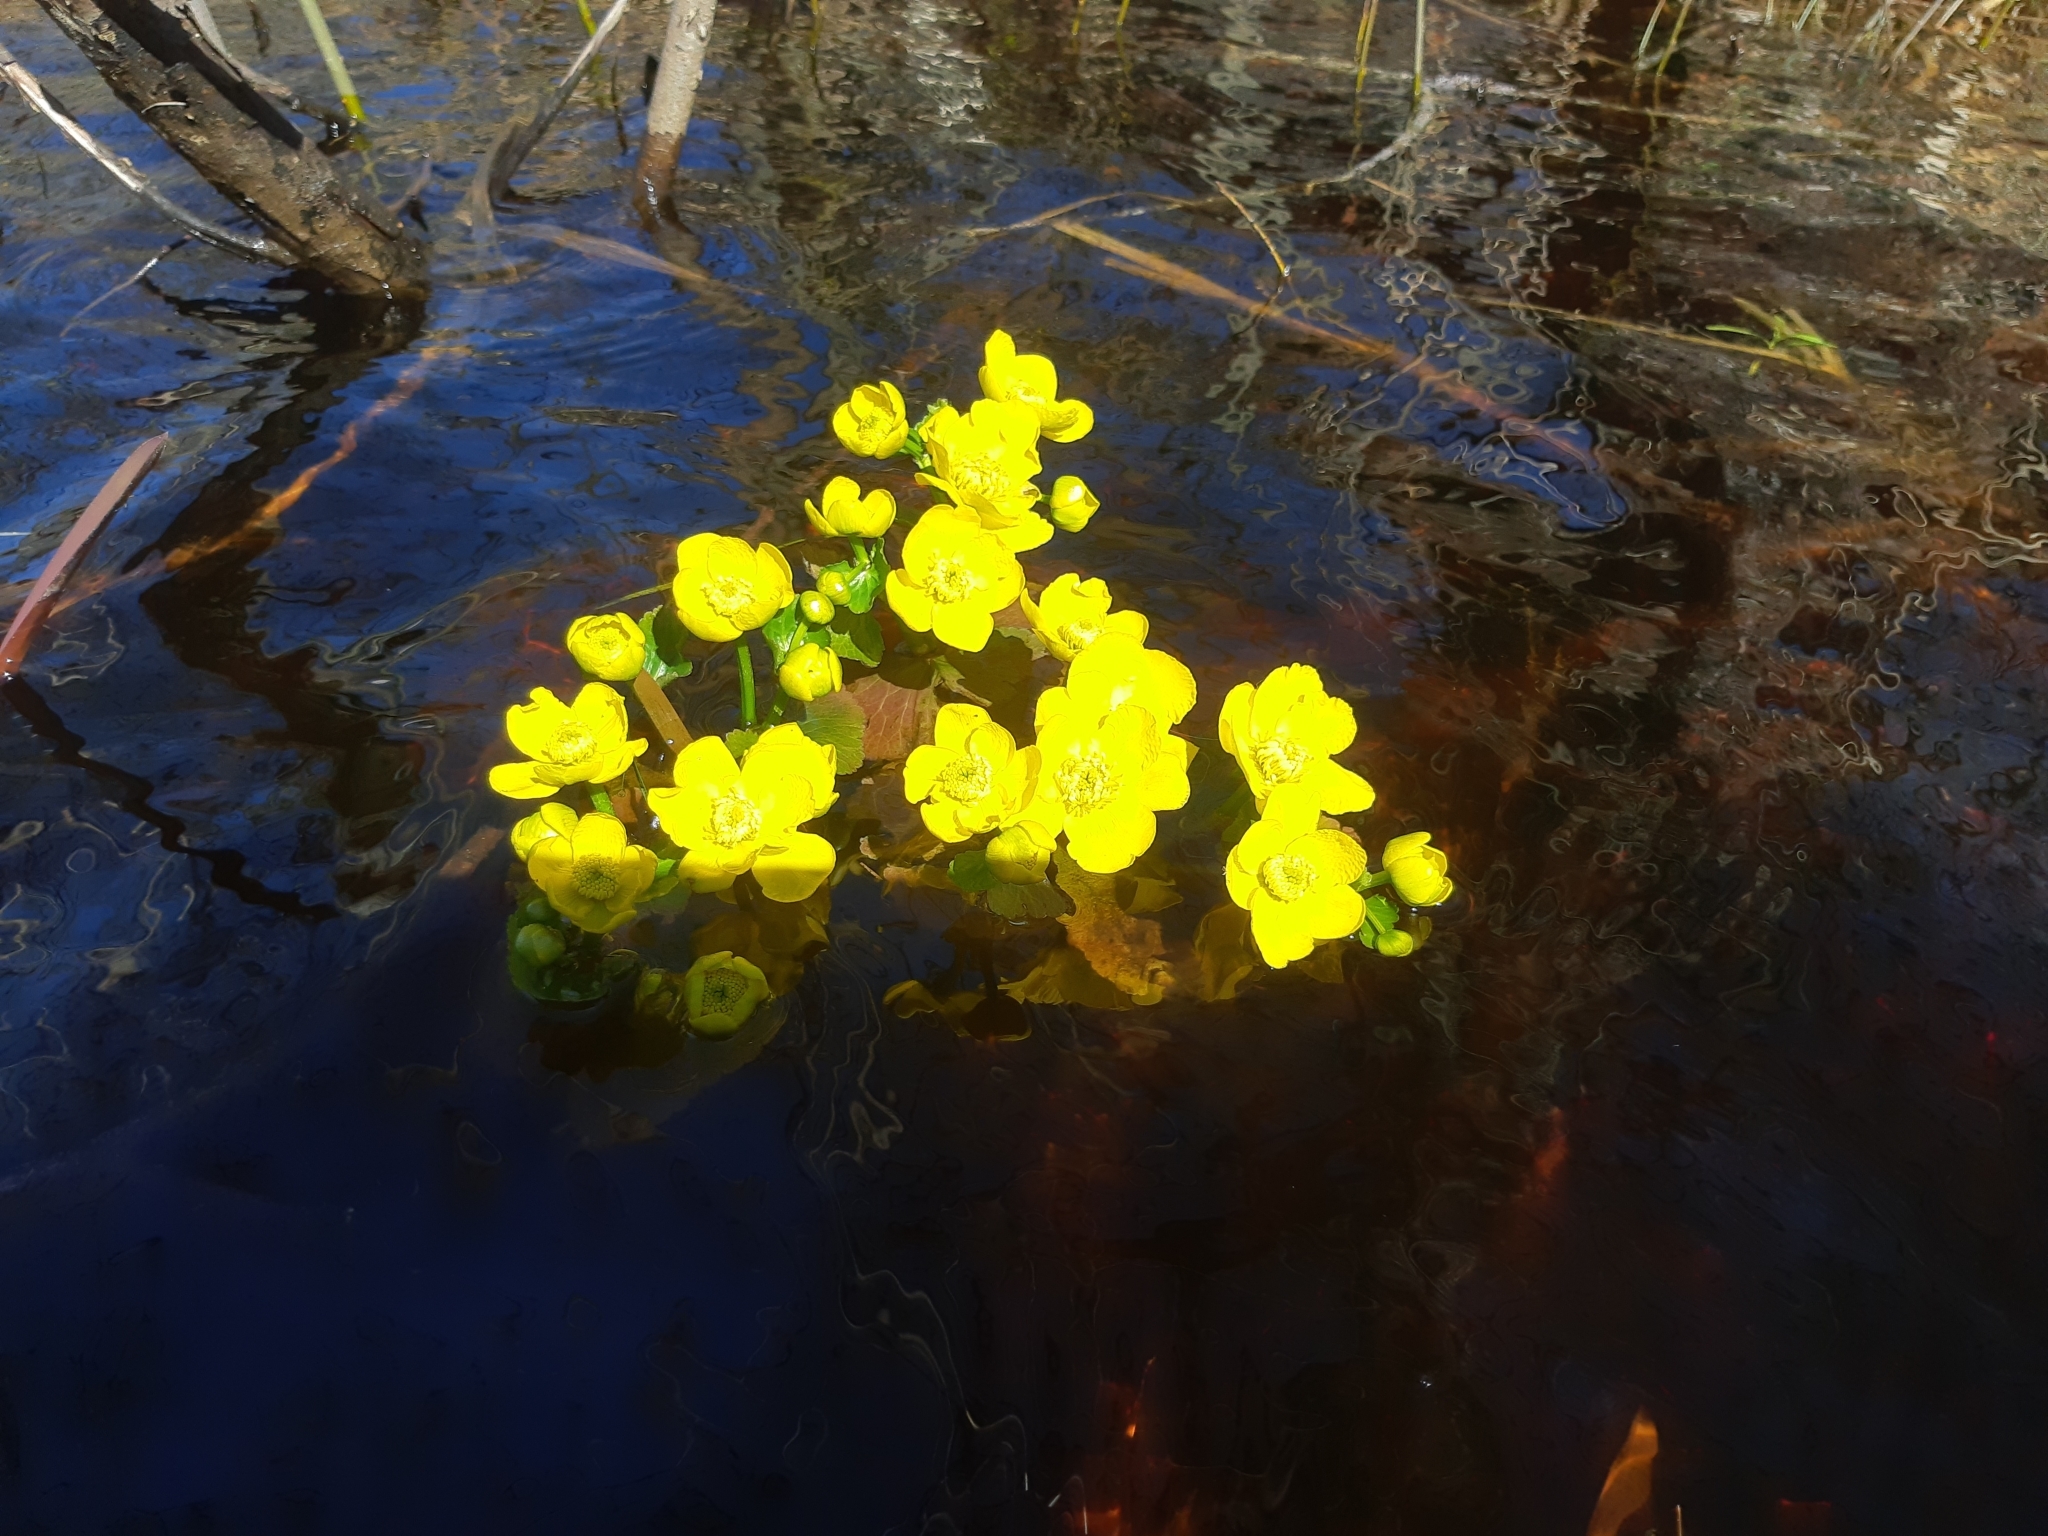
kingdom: Plantae
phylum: Tracheophyta
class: Magnoliopsida
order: Ranunculales
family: Ranunculaceae
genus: Caltha
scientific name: Caltha palustris
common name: Marsh marigold
